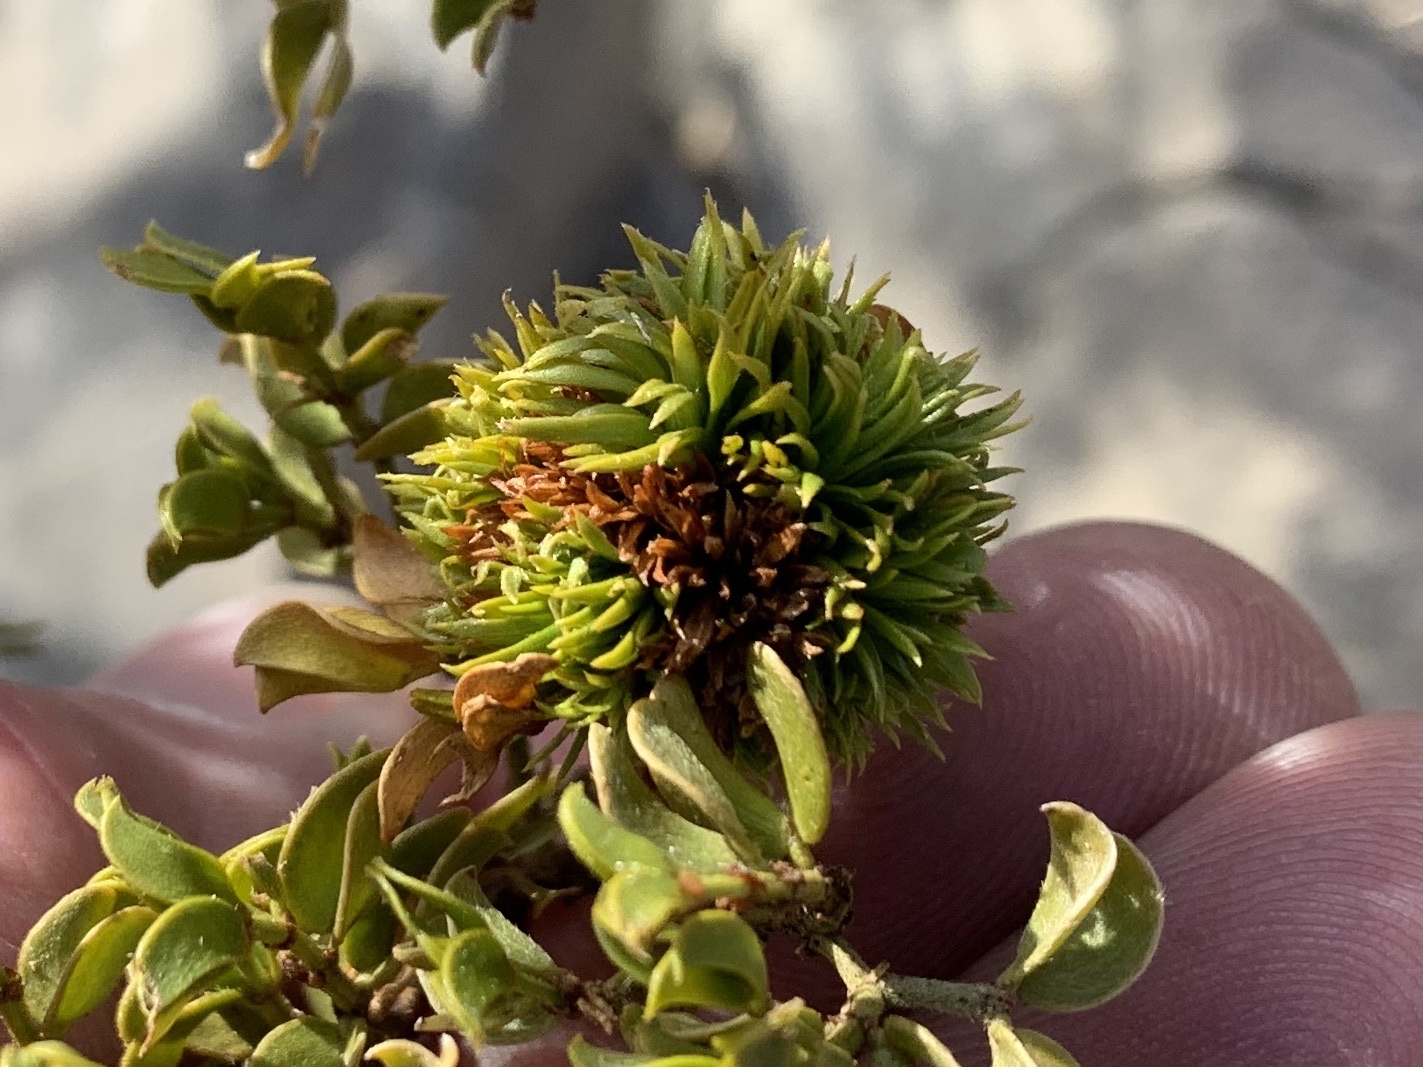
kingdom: Animalia
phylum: Arthropoda
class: Insecta
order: Diptera
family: Cecidomyiidae
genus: Asphondylia
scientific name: Asphondylia auripila
